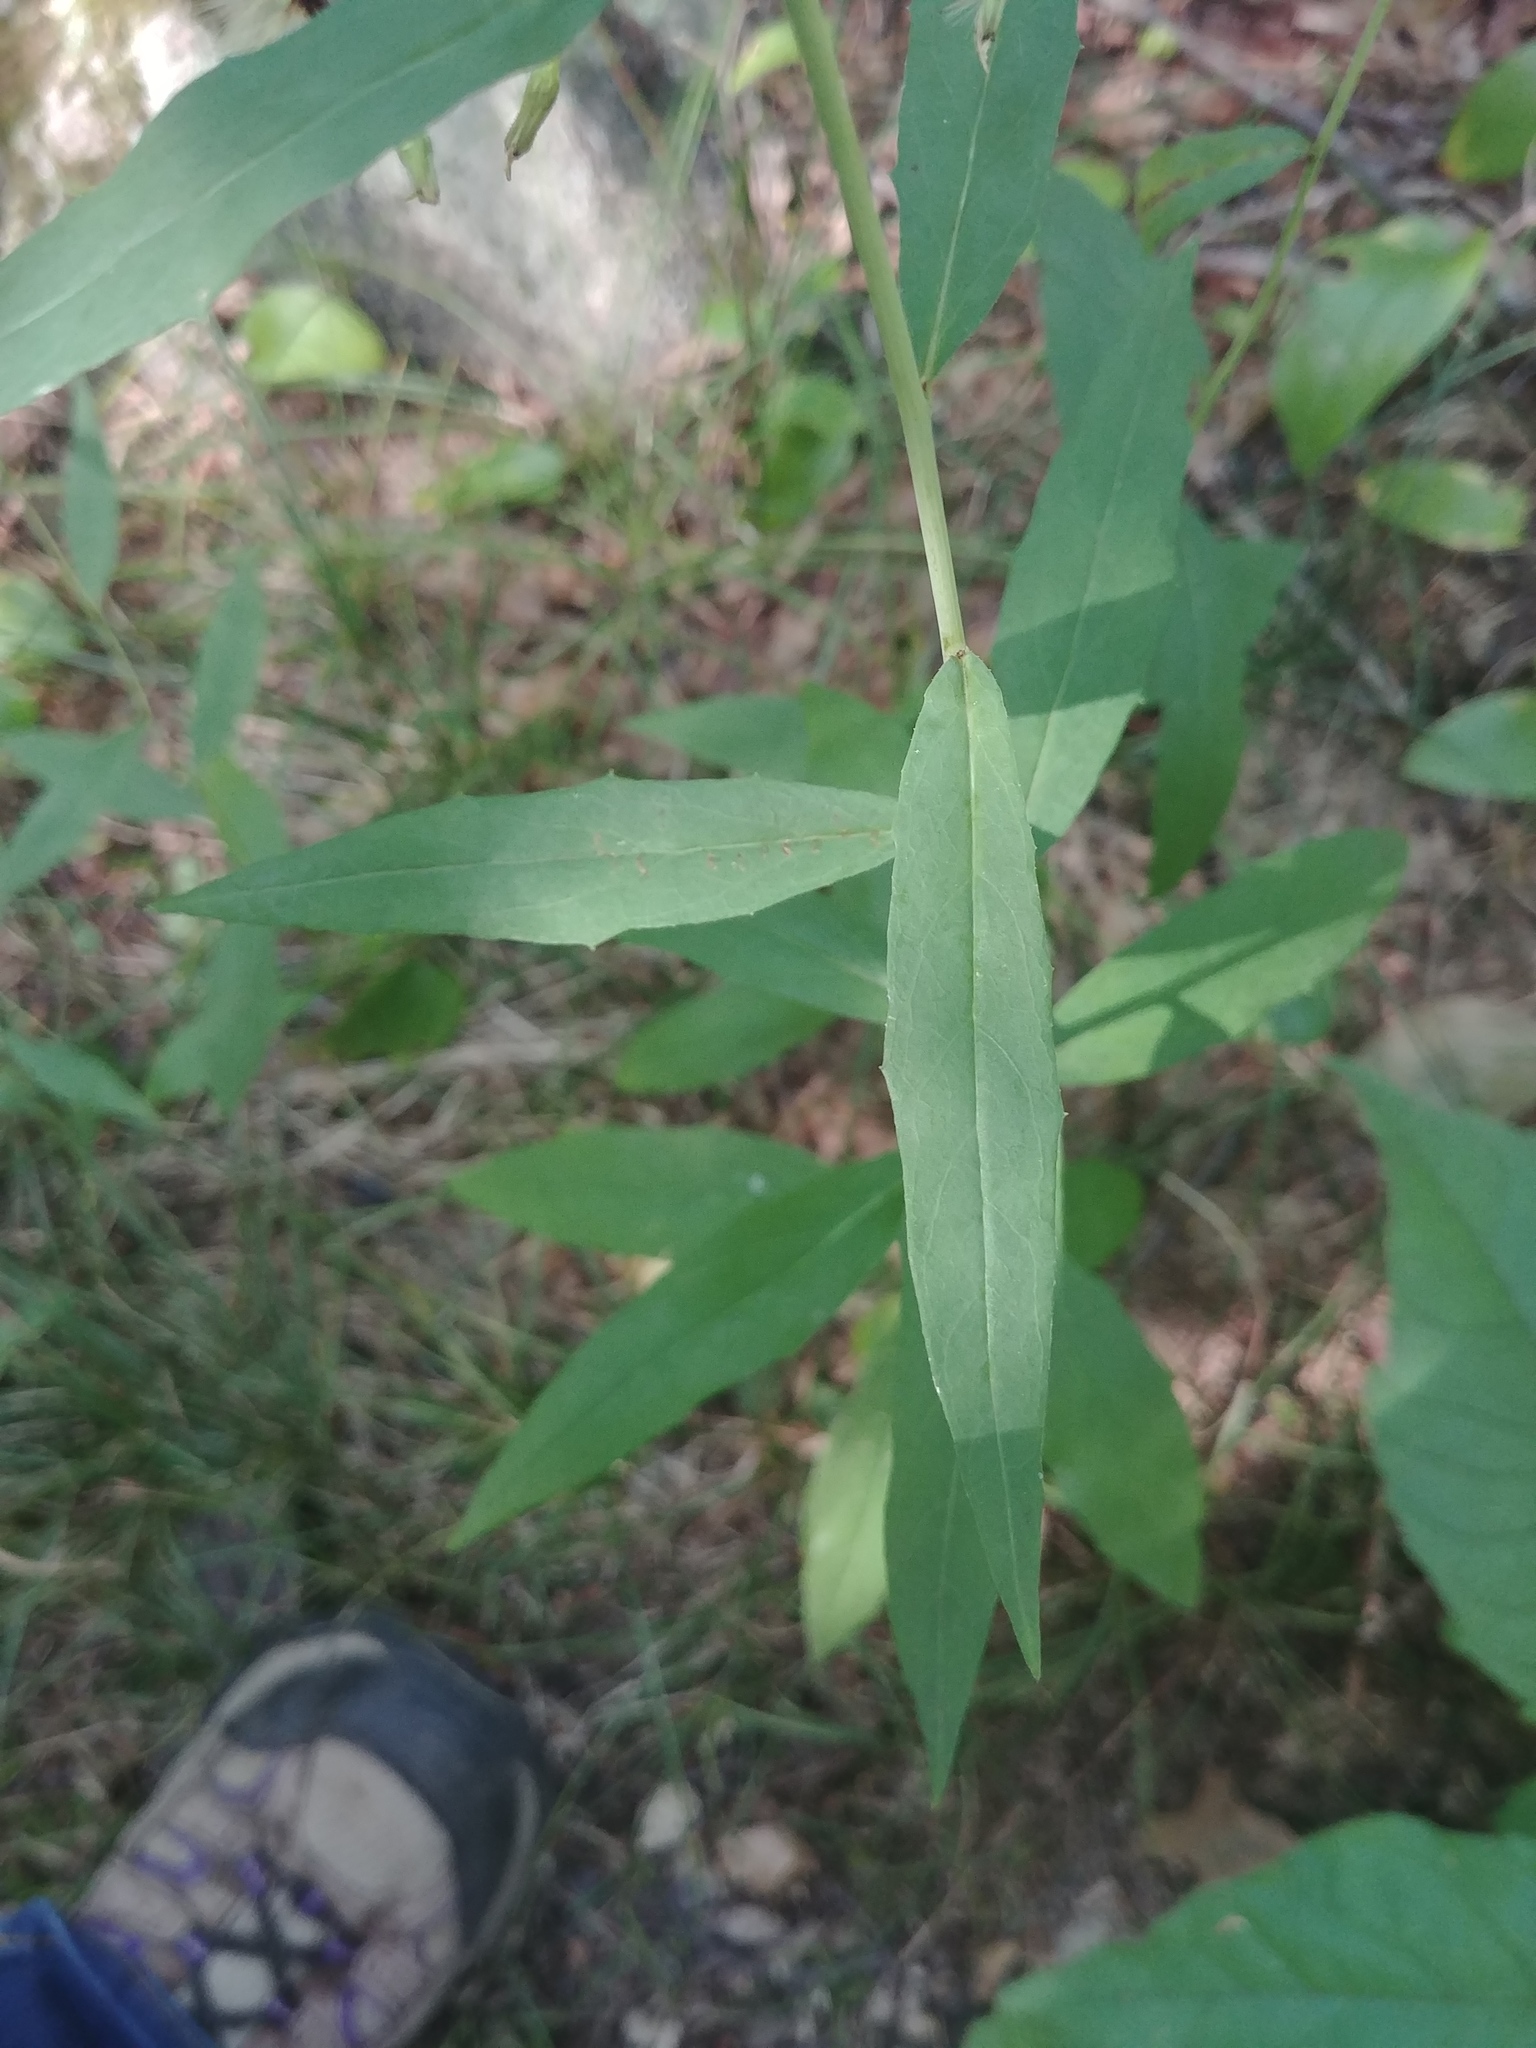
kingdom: Plantae
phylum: Tracheophyta
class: Magnoliopsida
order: Asterales
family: Asteraceae
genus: Hieracium
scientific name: Hieracium paniculatum
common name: Allegheny hawkweed
